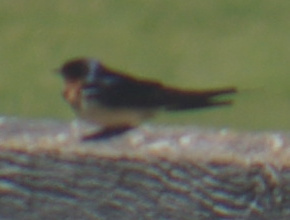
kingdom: Animalia
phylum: Chordata
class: Aves
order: Passeriformes
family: Hirundinidae
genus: Hirundo
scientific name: Hirundo rustica
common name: Barn swallow
